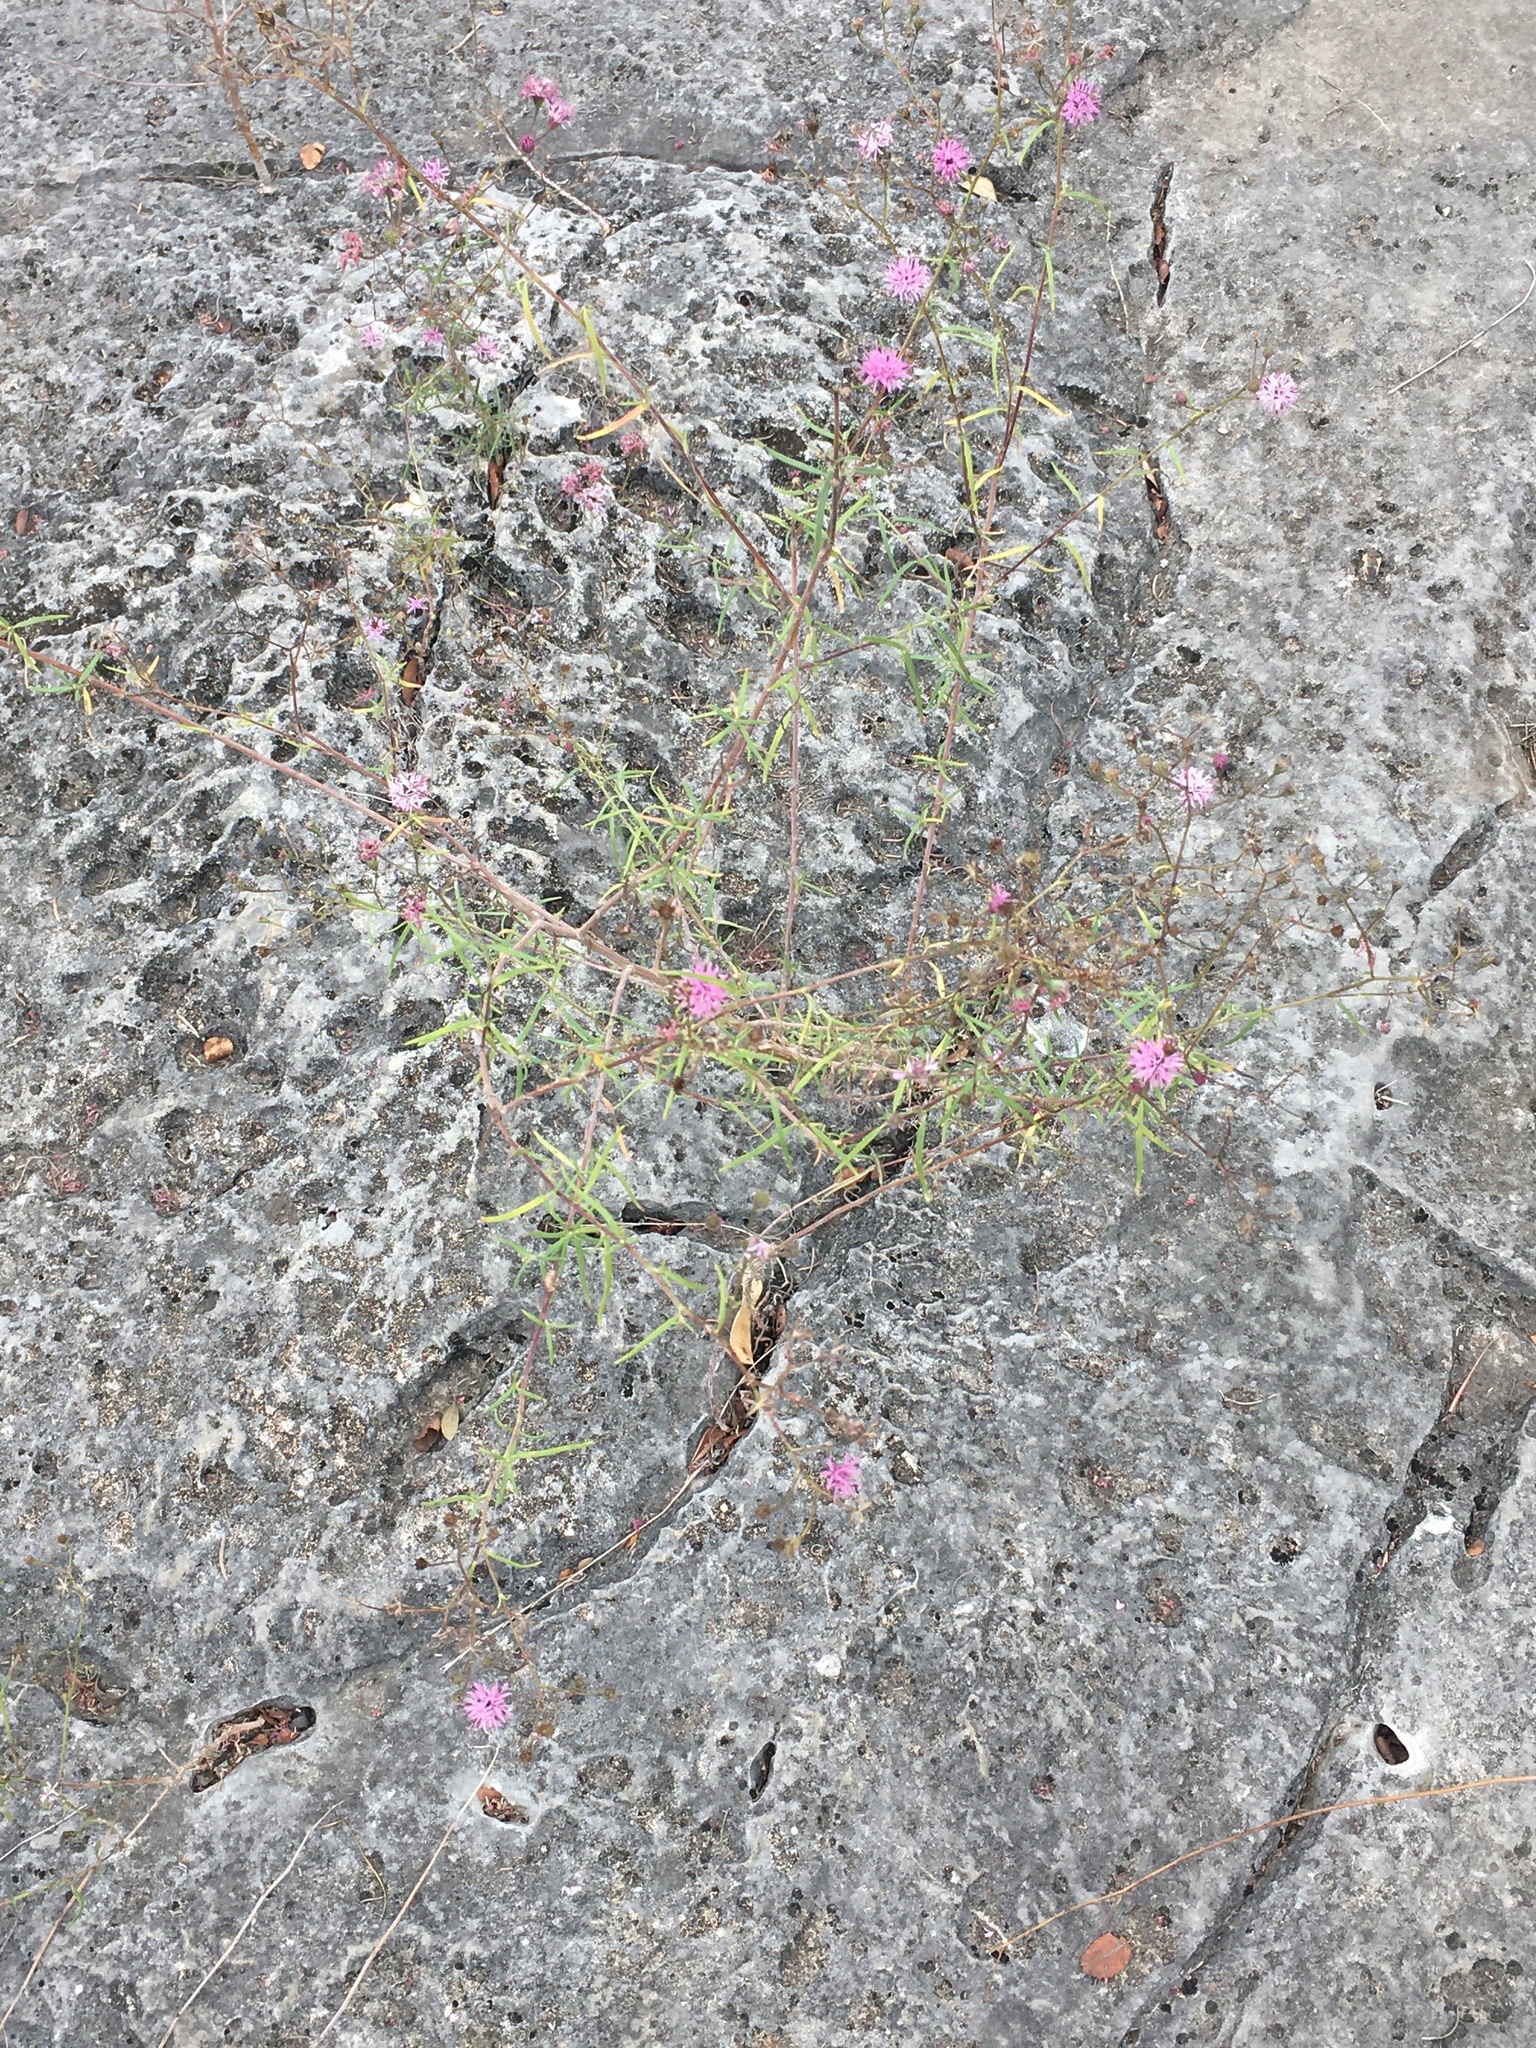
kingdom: Plantae
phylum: Tracheophyta
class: Magnoliopsida
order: Asterales
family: Asteraceae
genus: Palafoxia
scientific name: Palafoxia callosa
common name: Small palafox
